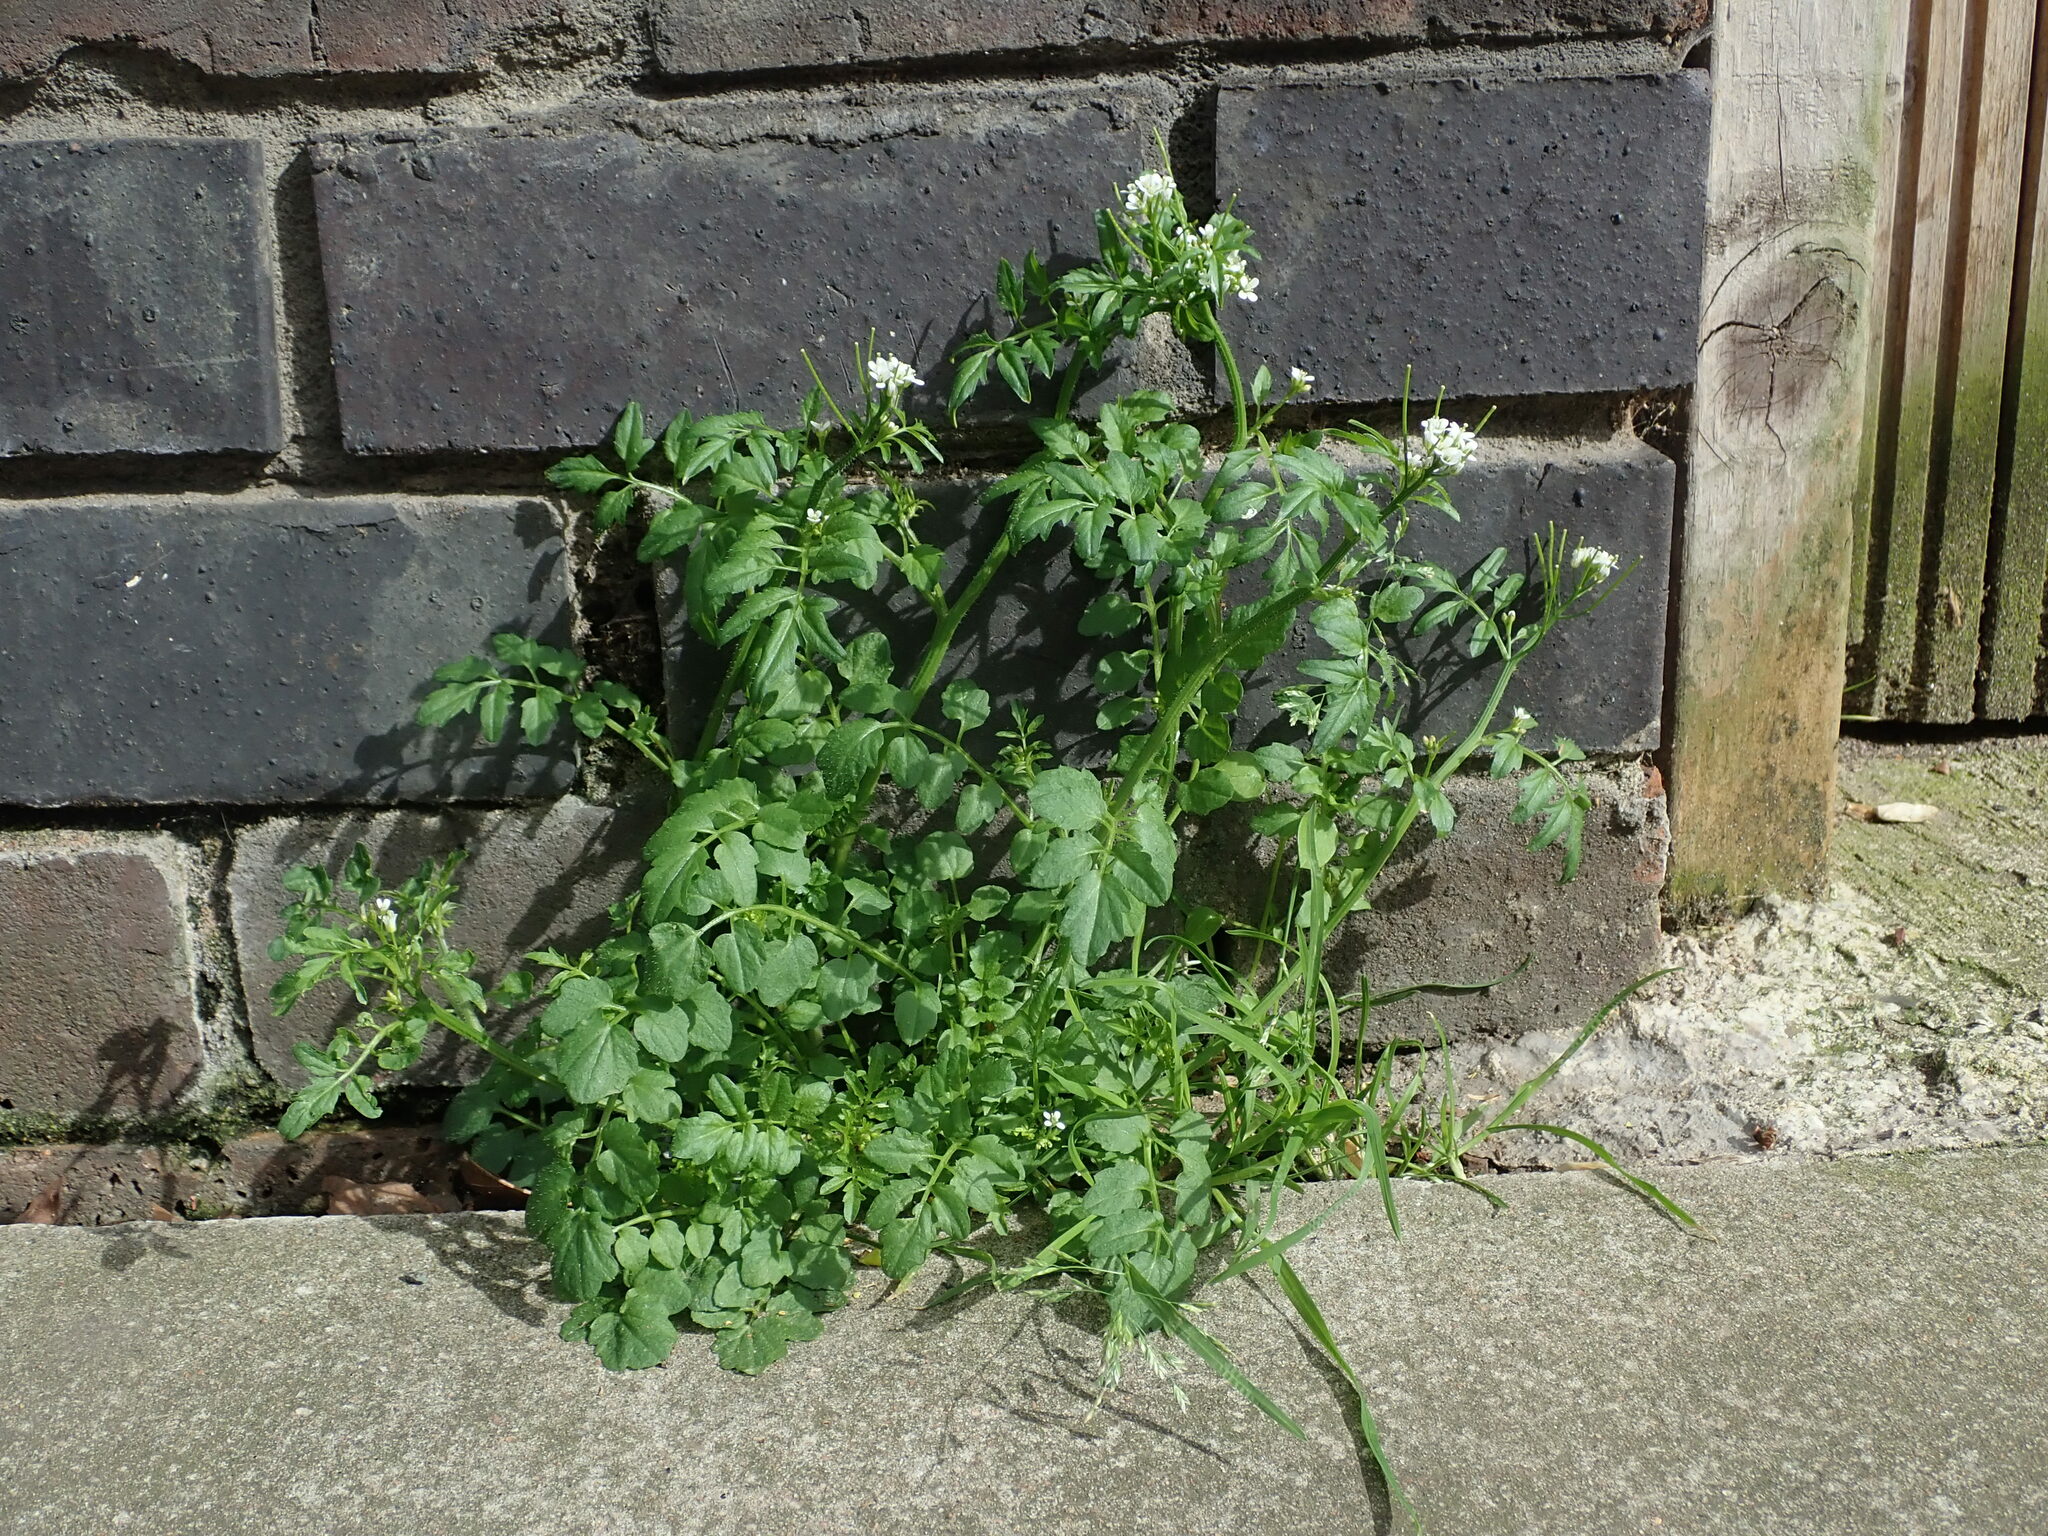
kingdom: Plantae
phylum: Tracheophyta
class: Magnoliopsida
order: Brassicales
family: Brassicaceae
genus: Cardamine
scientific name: Cardamine flexuosa
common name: Woodland bittercress
